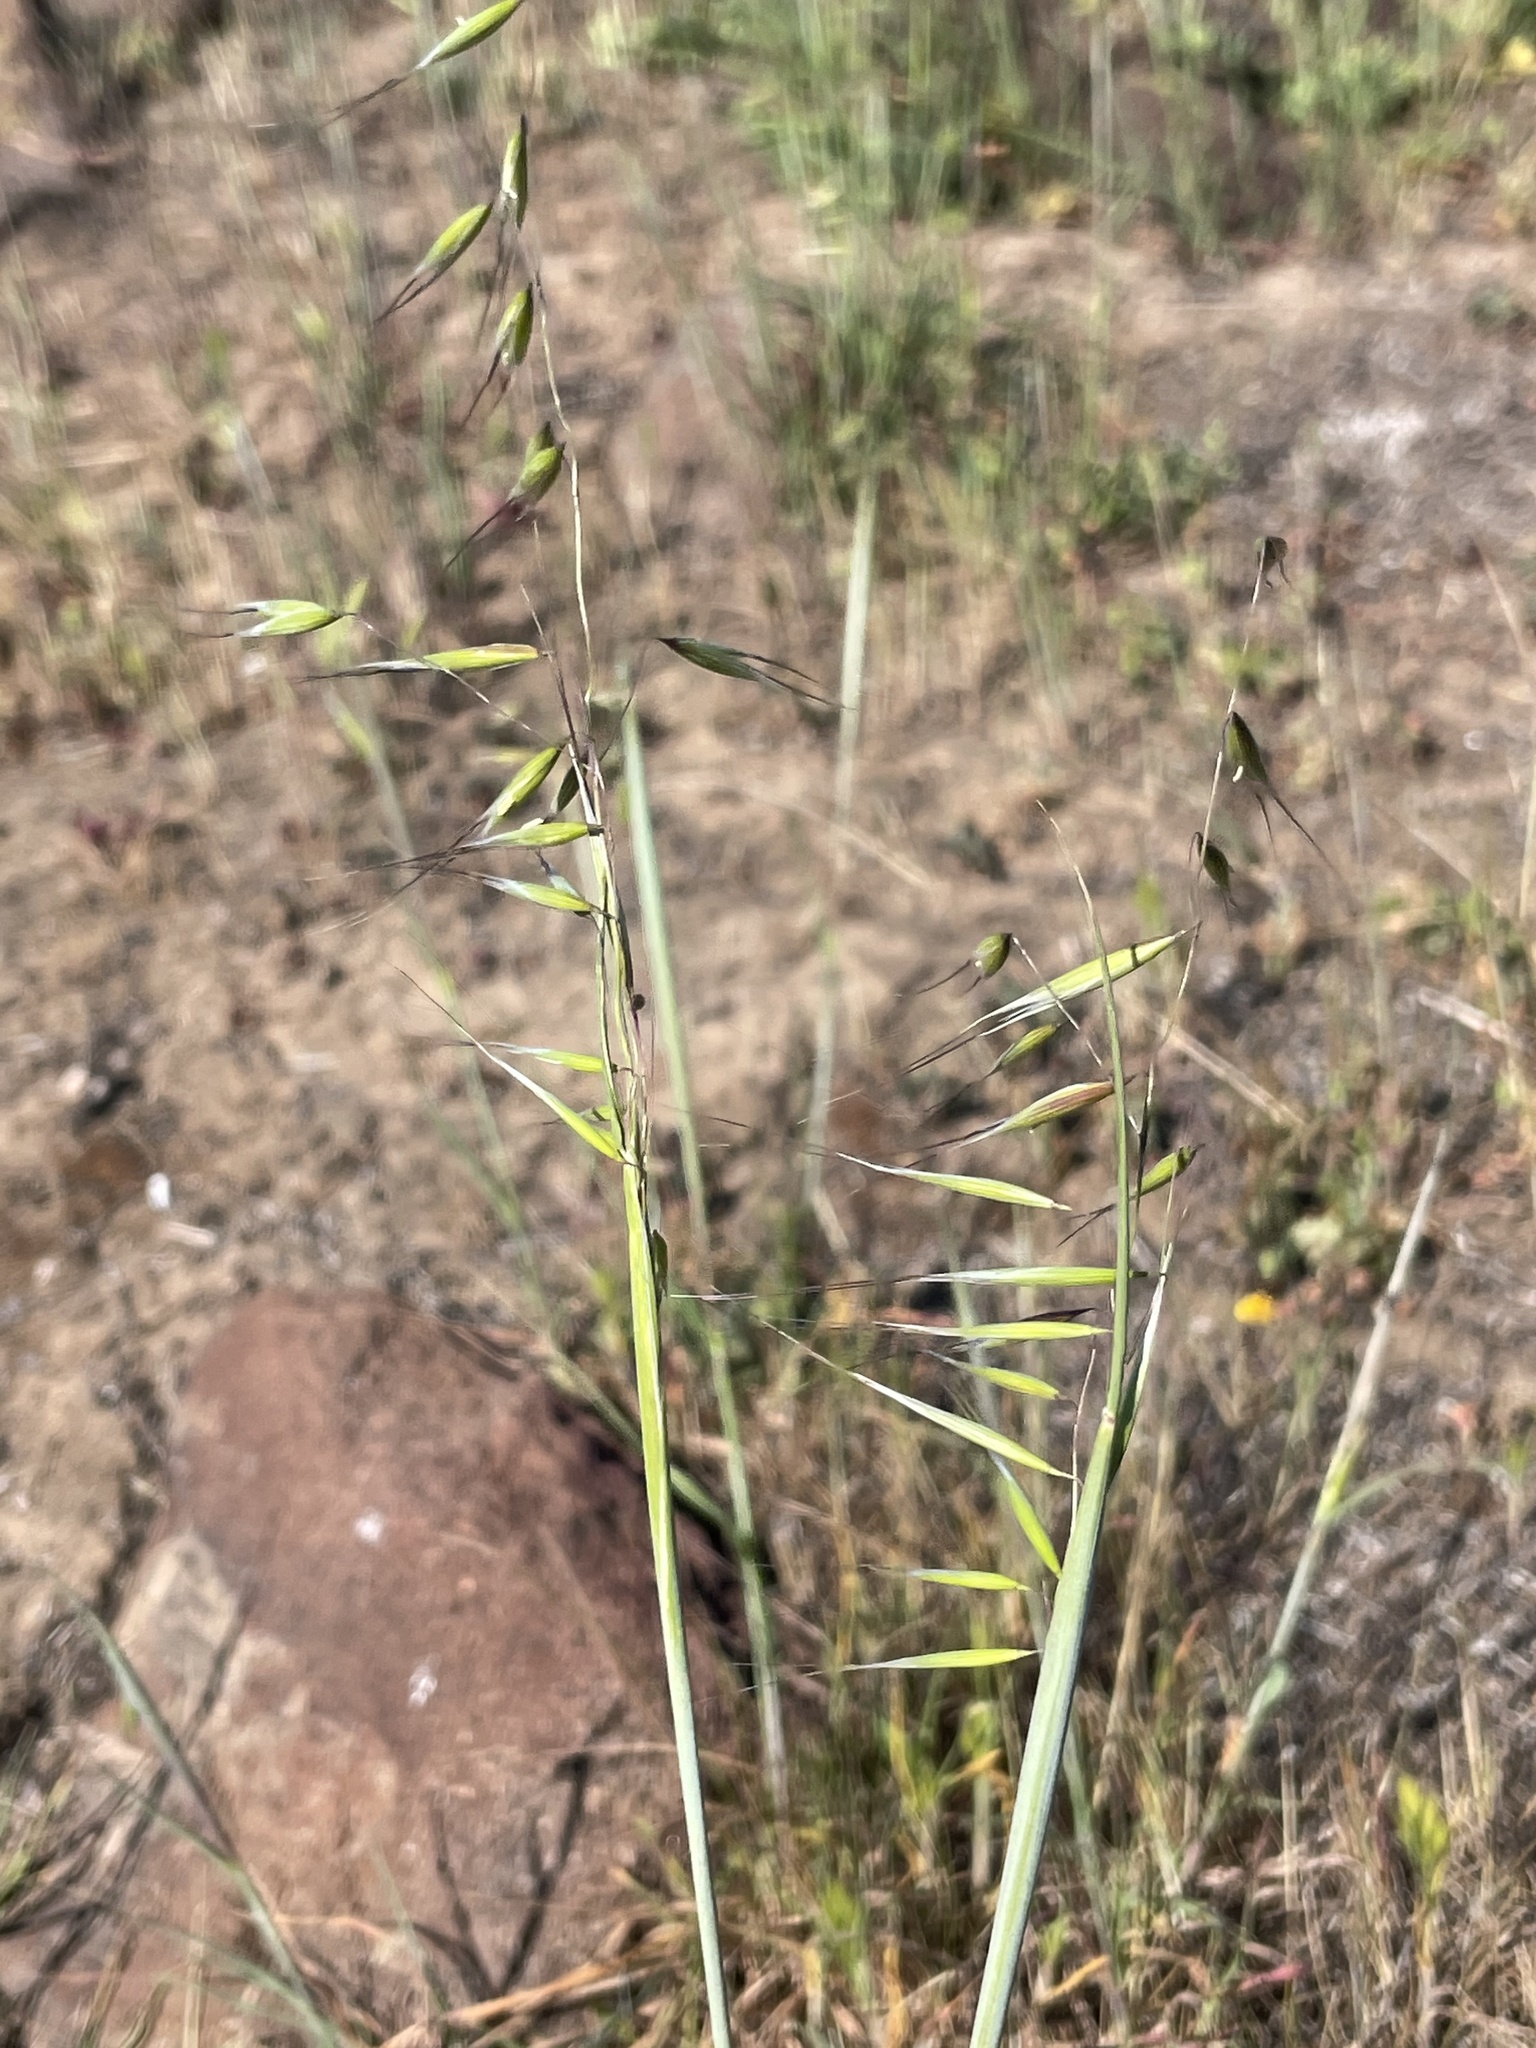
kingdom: Plantae
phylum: Tracheophyta
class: Liliopsida
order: Poales
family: Poaceae
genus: Avena
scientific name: Avena barbata
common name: Slender oat
